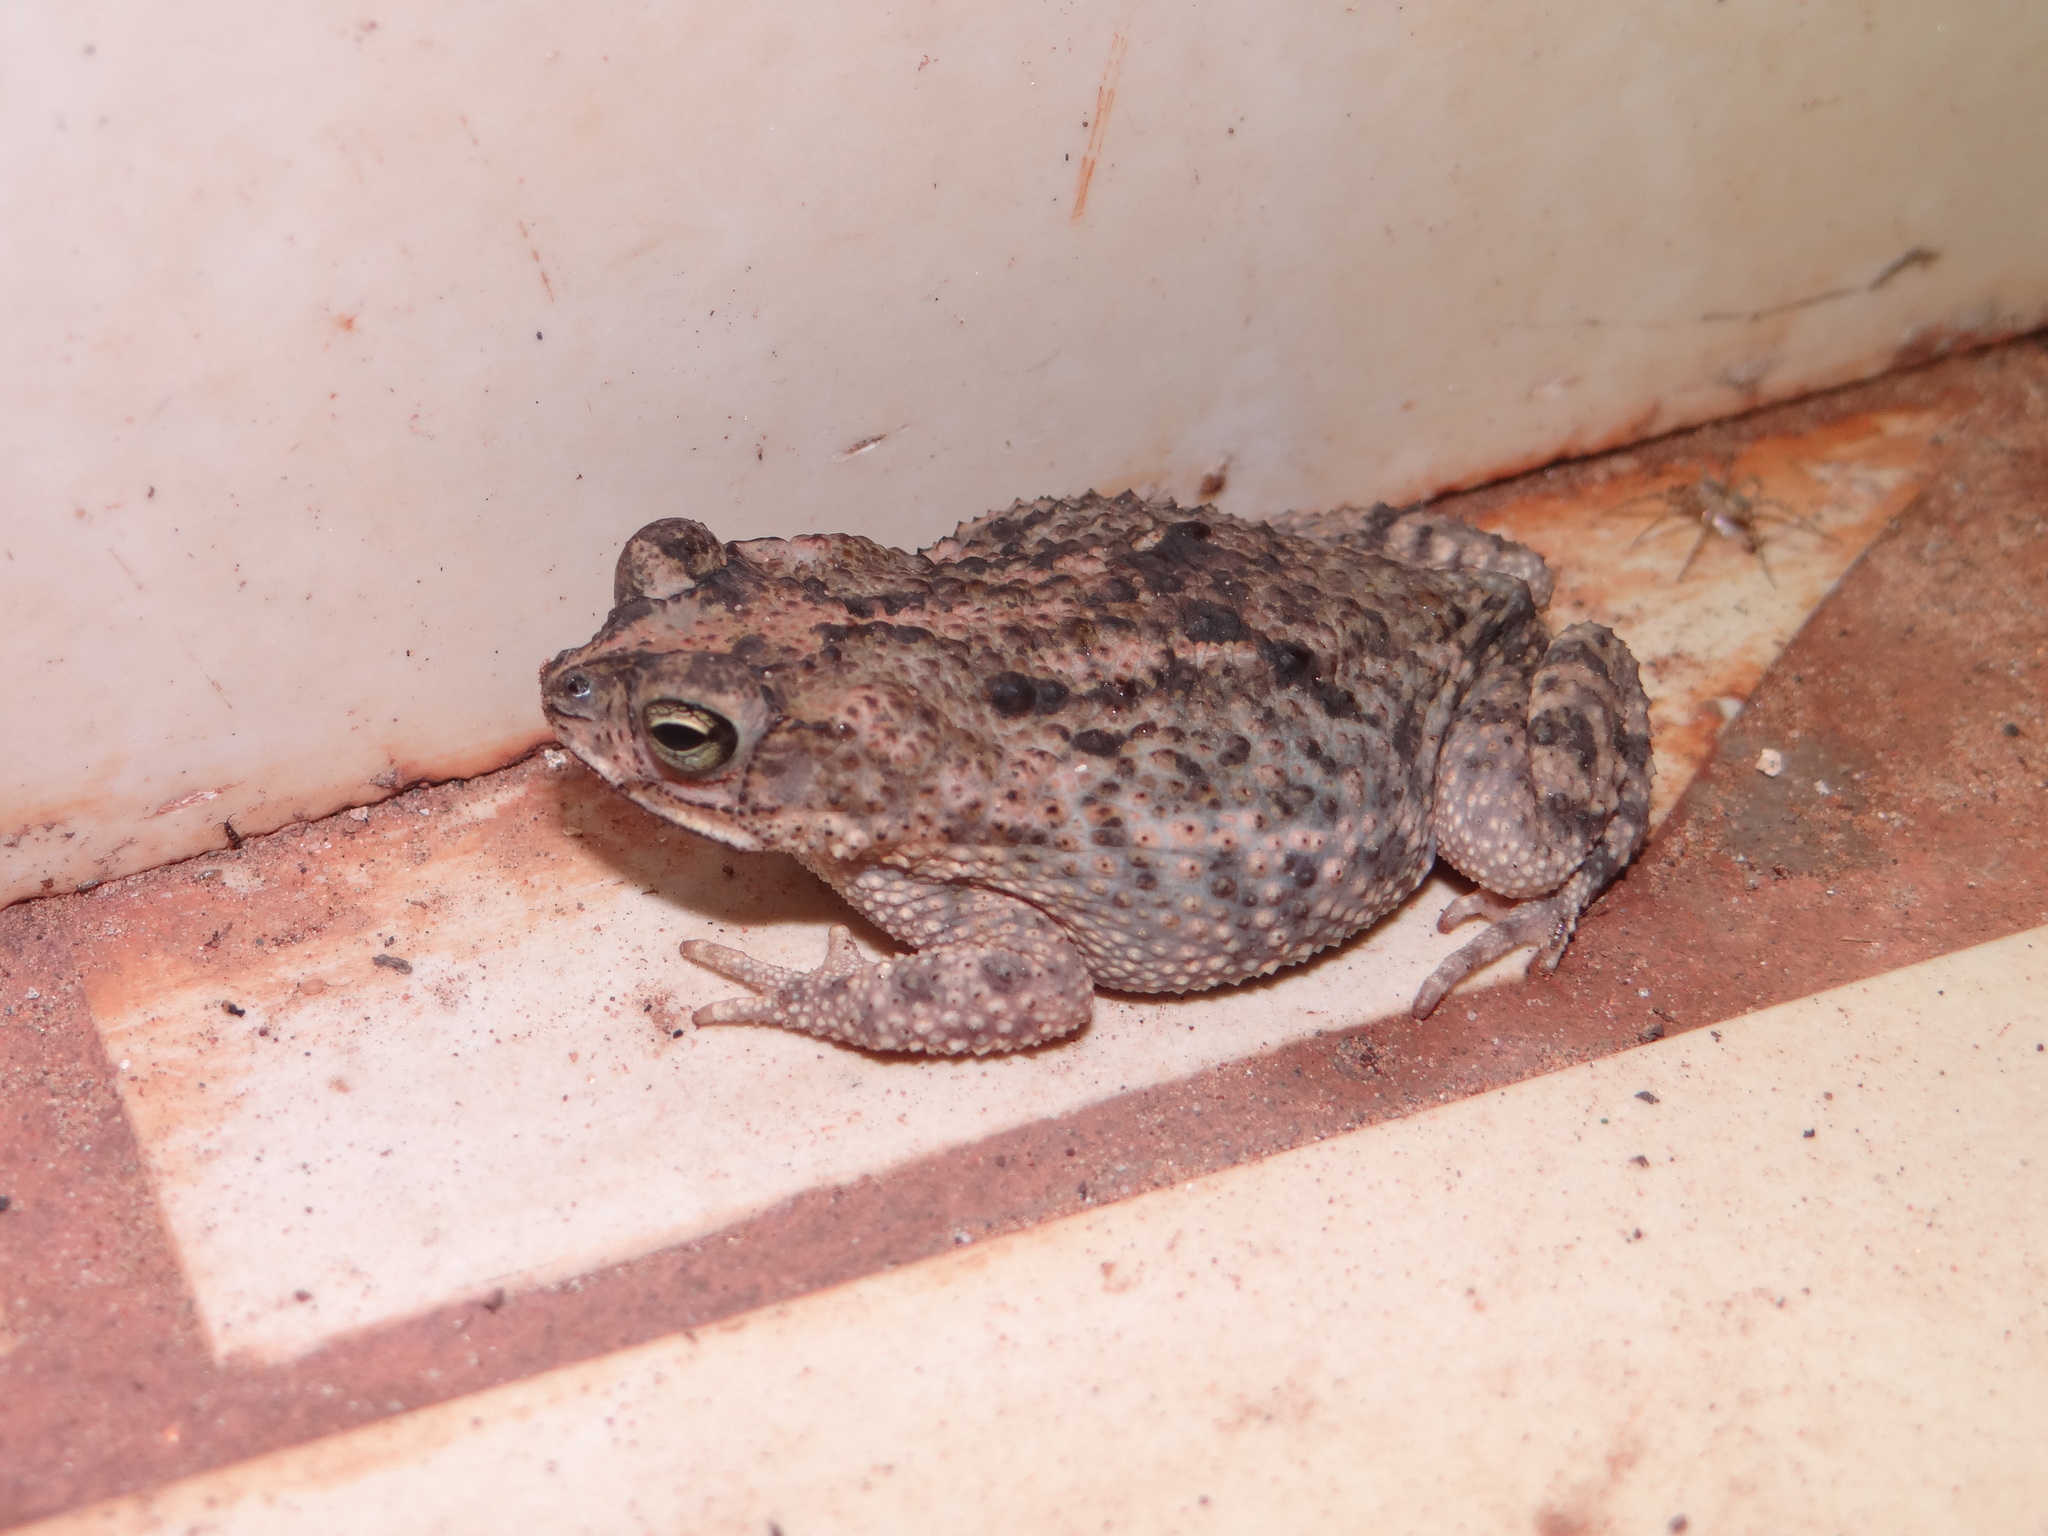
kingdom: Animalia
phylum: Chordata
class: Amphibia
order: Anura
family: Bufonidae
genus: Rhinella
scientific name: Rhinella major
